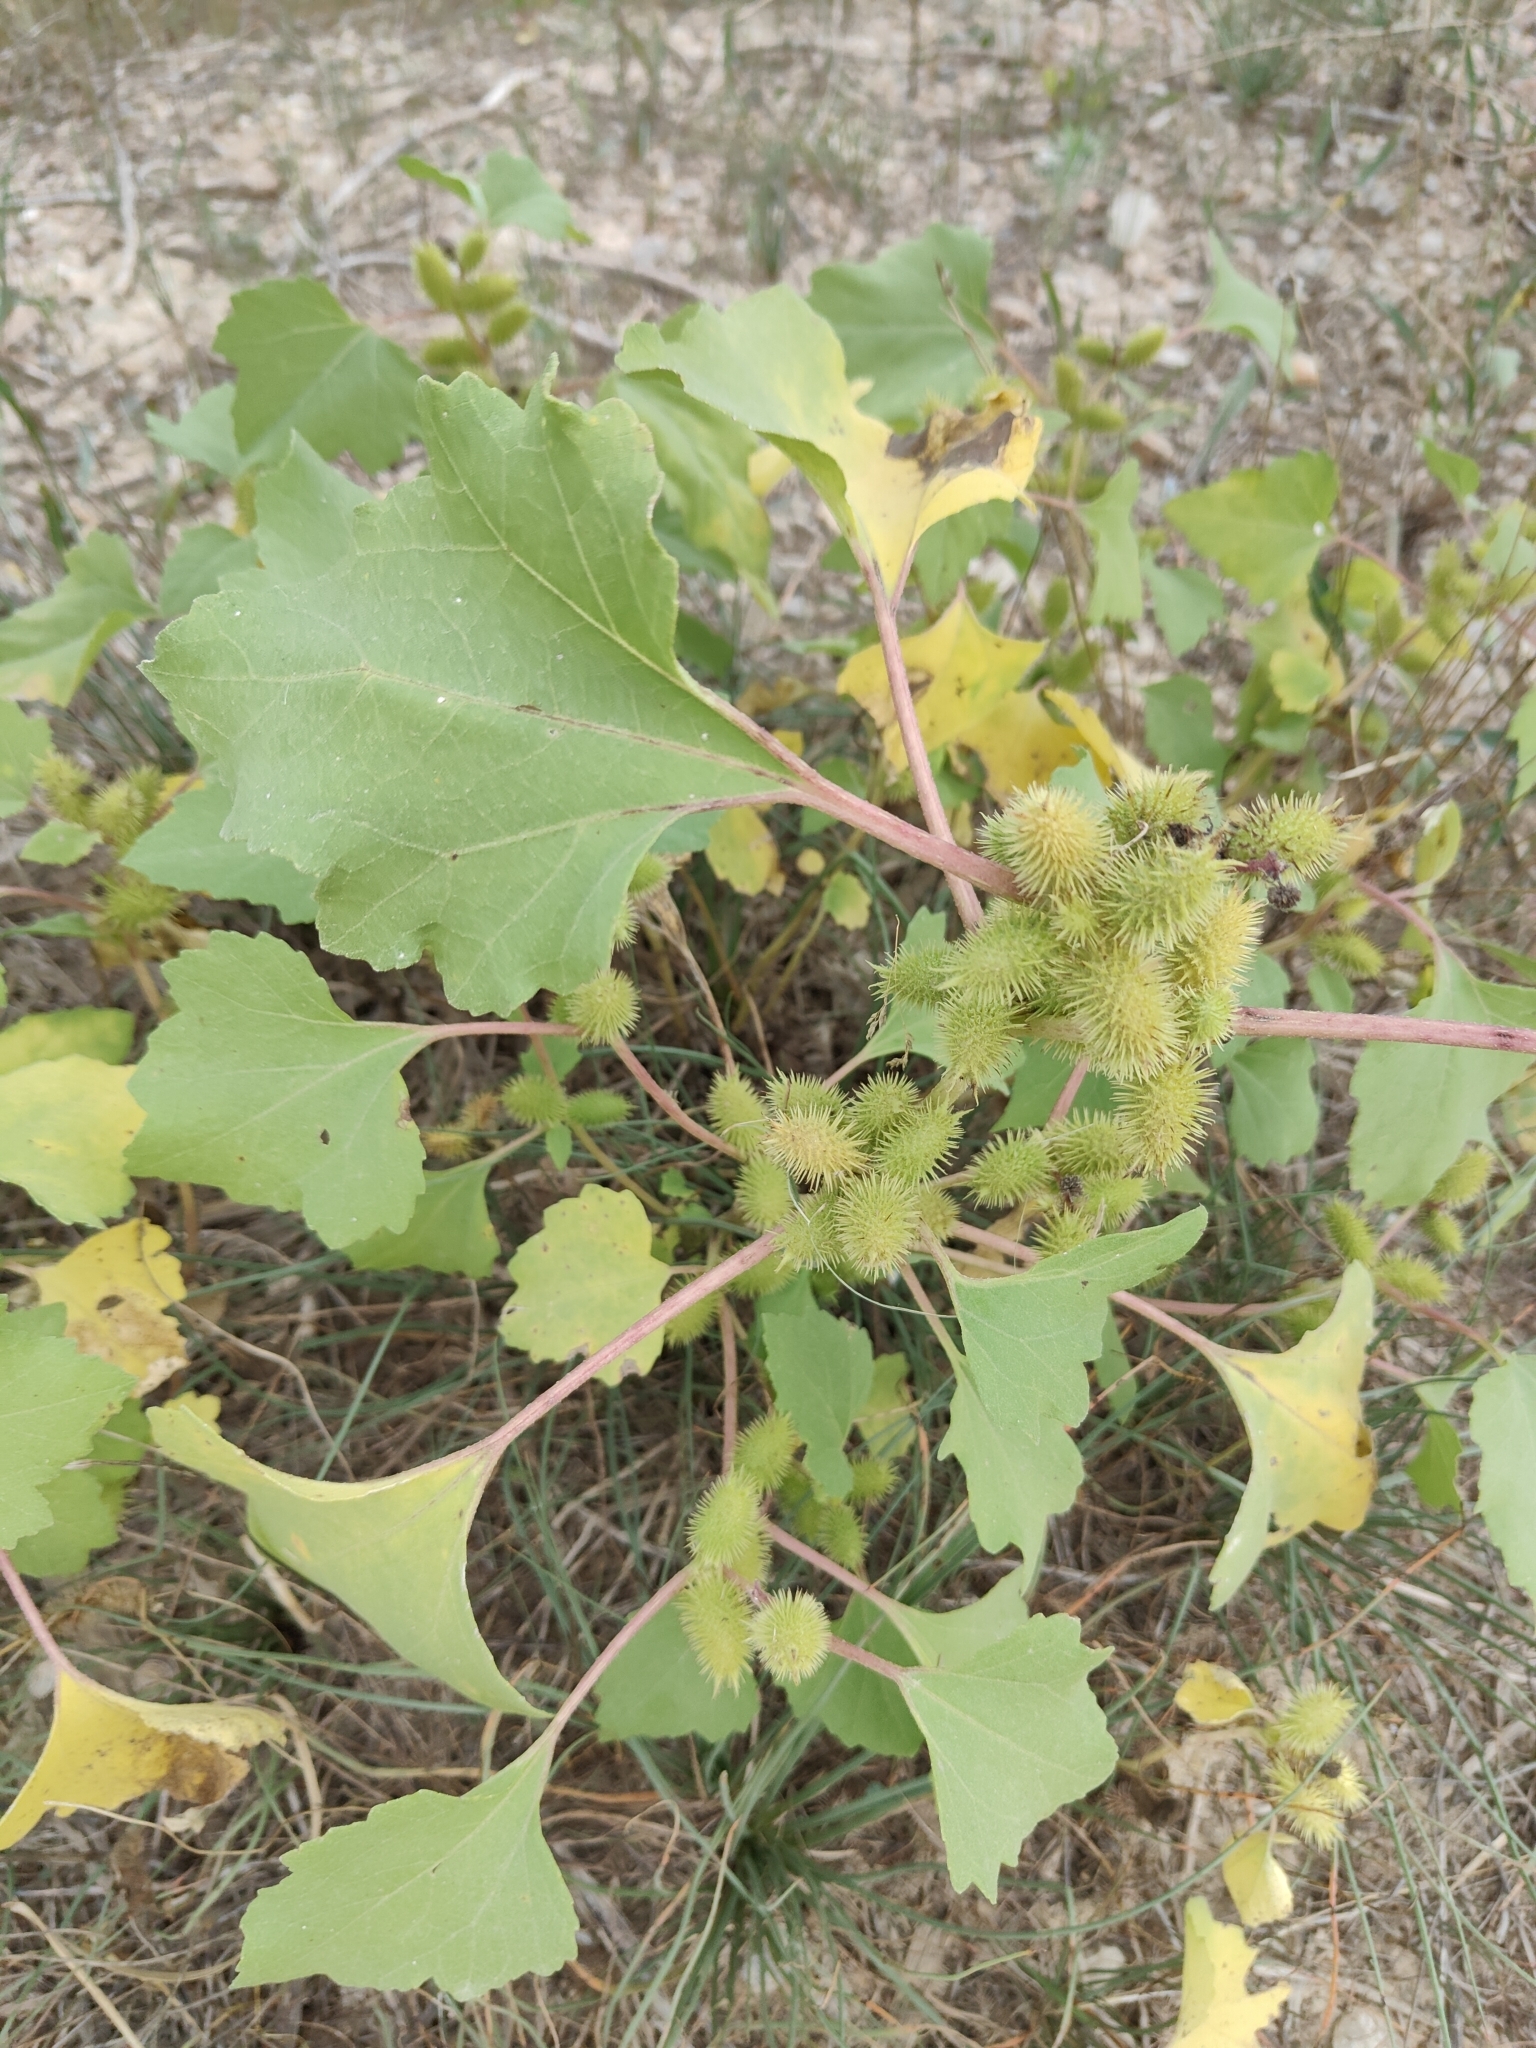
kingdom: Plantae
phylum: Tracheophyta
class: Magnoliopsida
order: Asterales
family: Asteraceae
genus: Xanthium
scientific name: Xanthium orientale
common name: Californian burr
